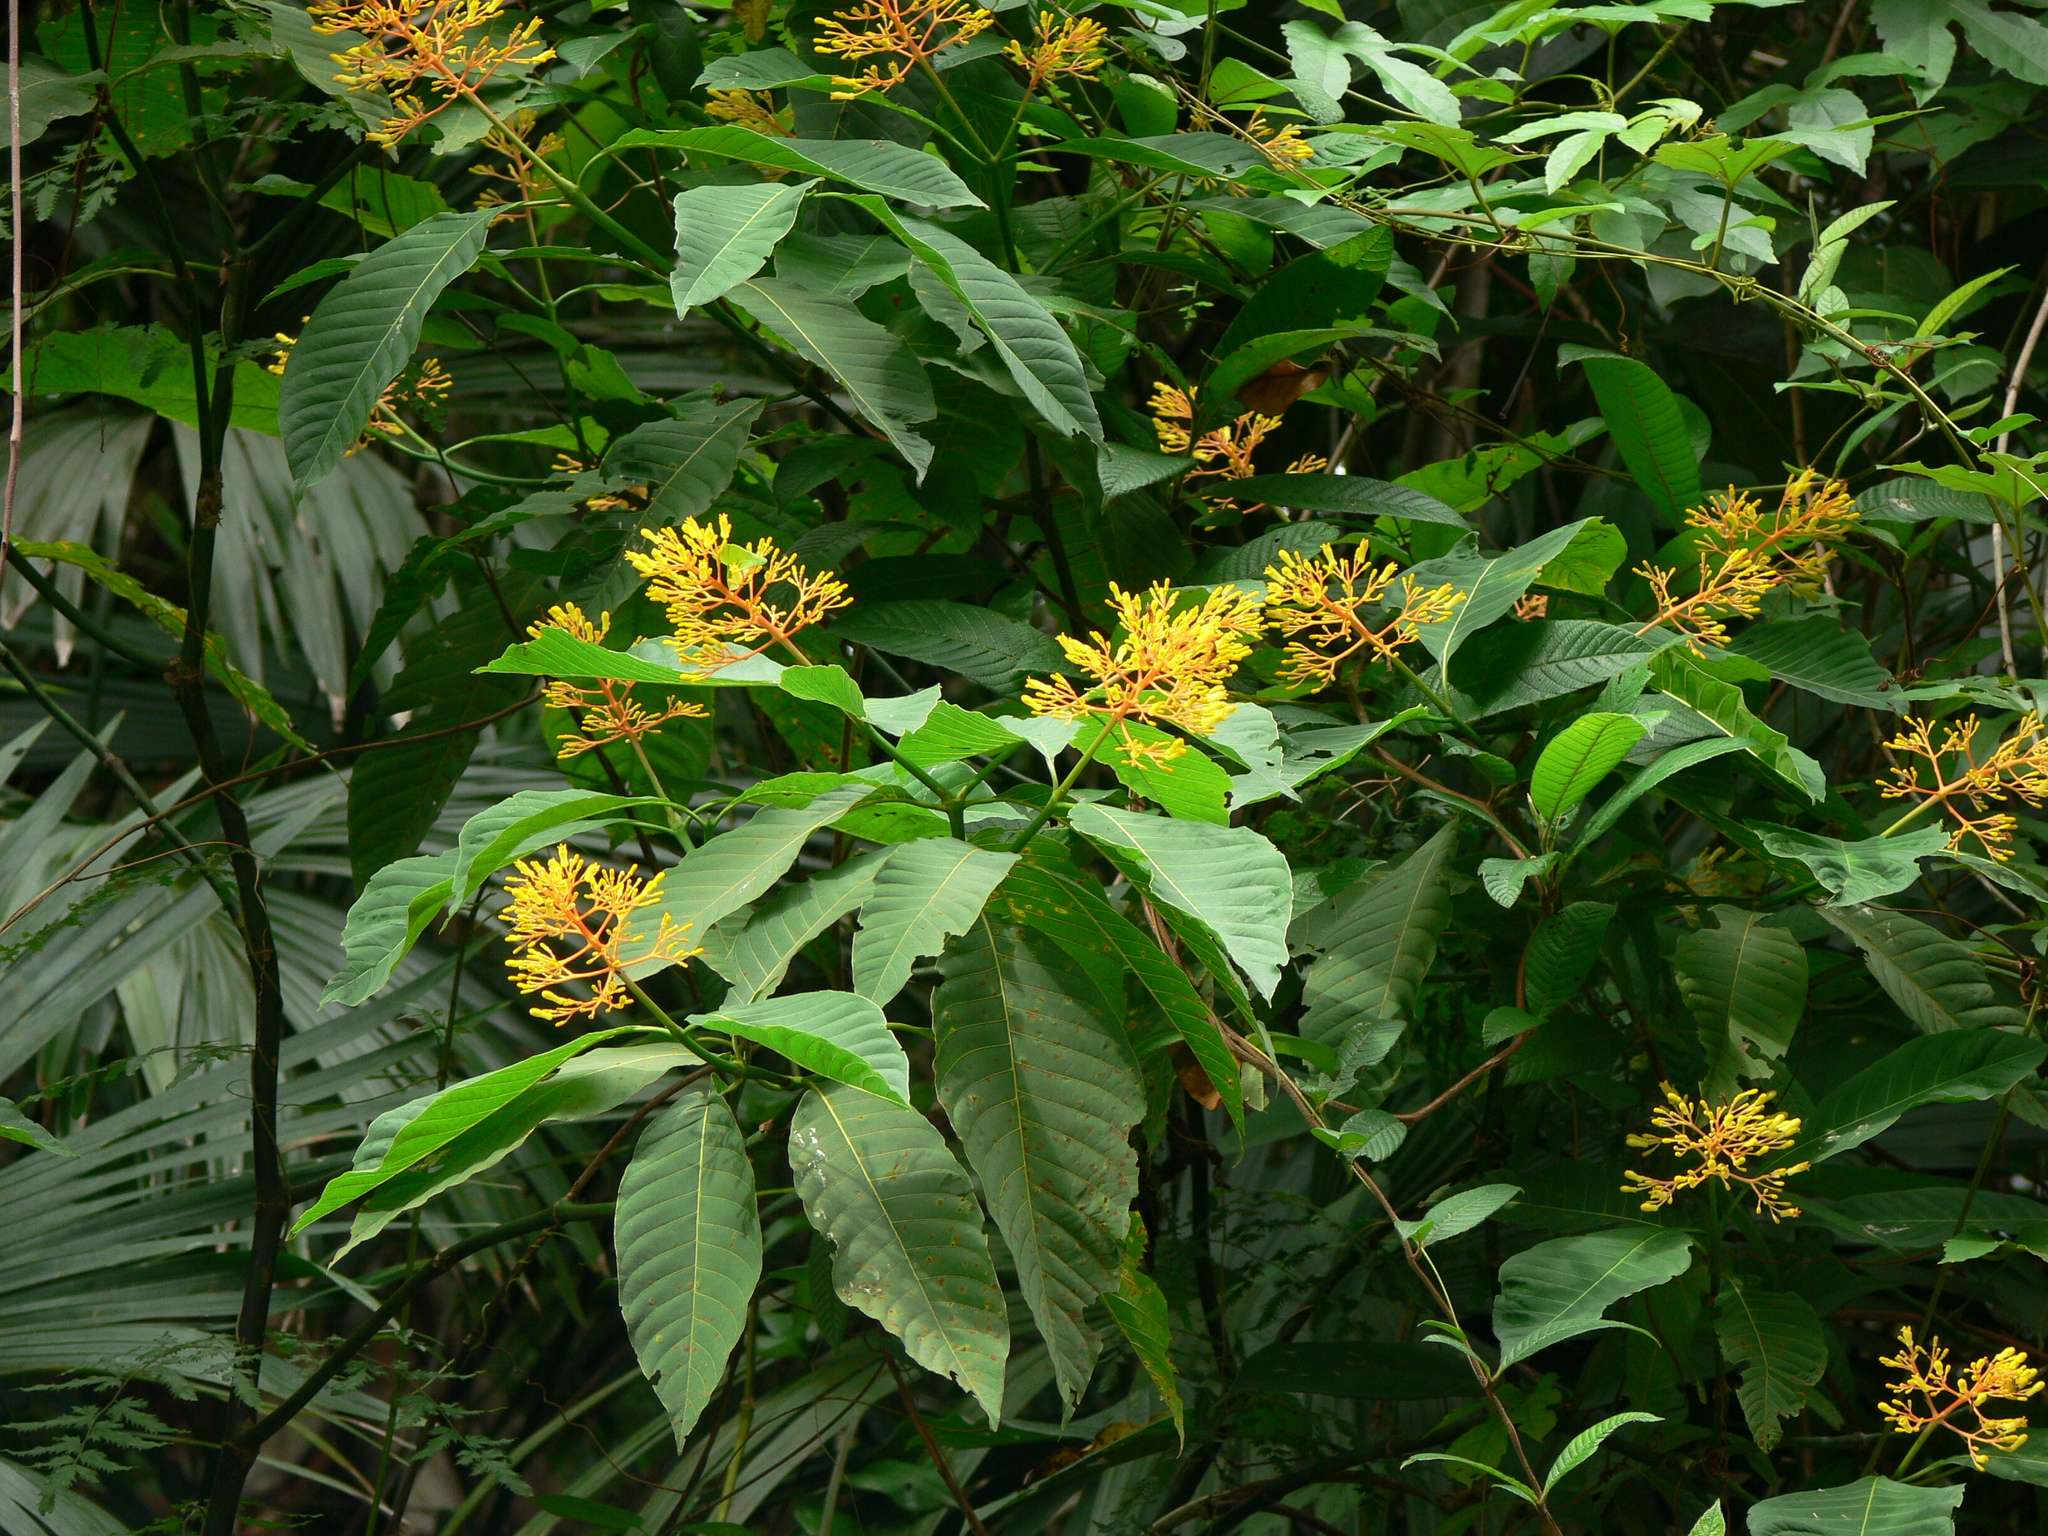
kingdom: Plantae
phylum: Tracheophyta
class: Magnoliopsida
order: Gentianales
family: Rubiaceae
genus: Palicourea
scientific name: Palicourea guianensis
